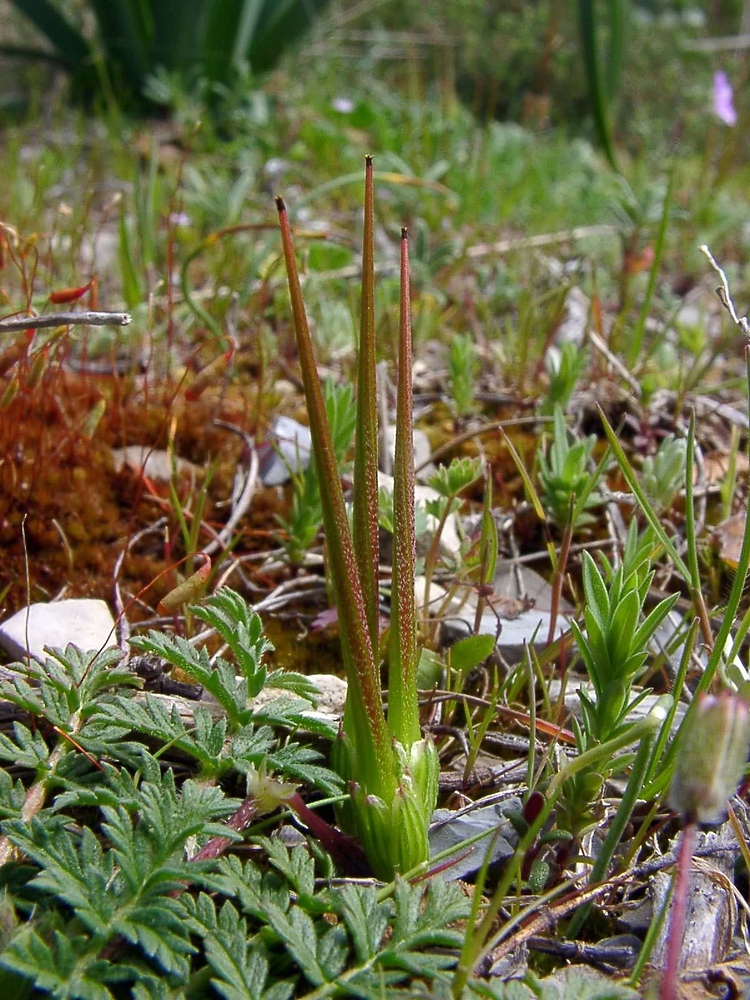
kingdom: Plantae
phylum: Tracheophyta
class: Magnoliopsida
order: Geraniales
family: Geraniaceae
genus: Erodium
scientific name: Erodium cicutarium
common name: Common stork's-bill
